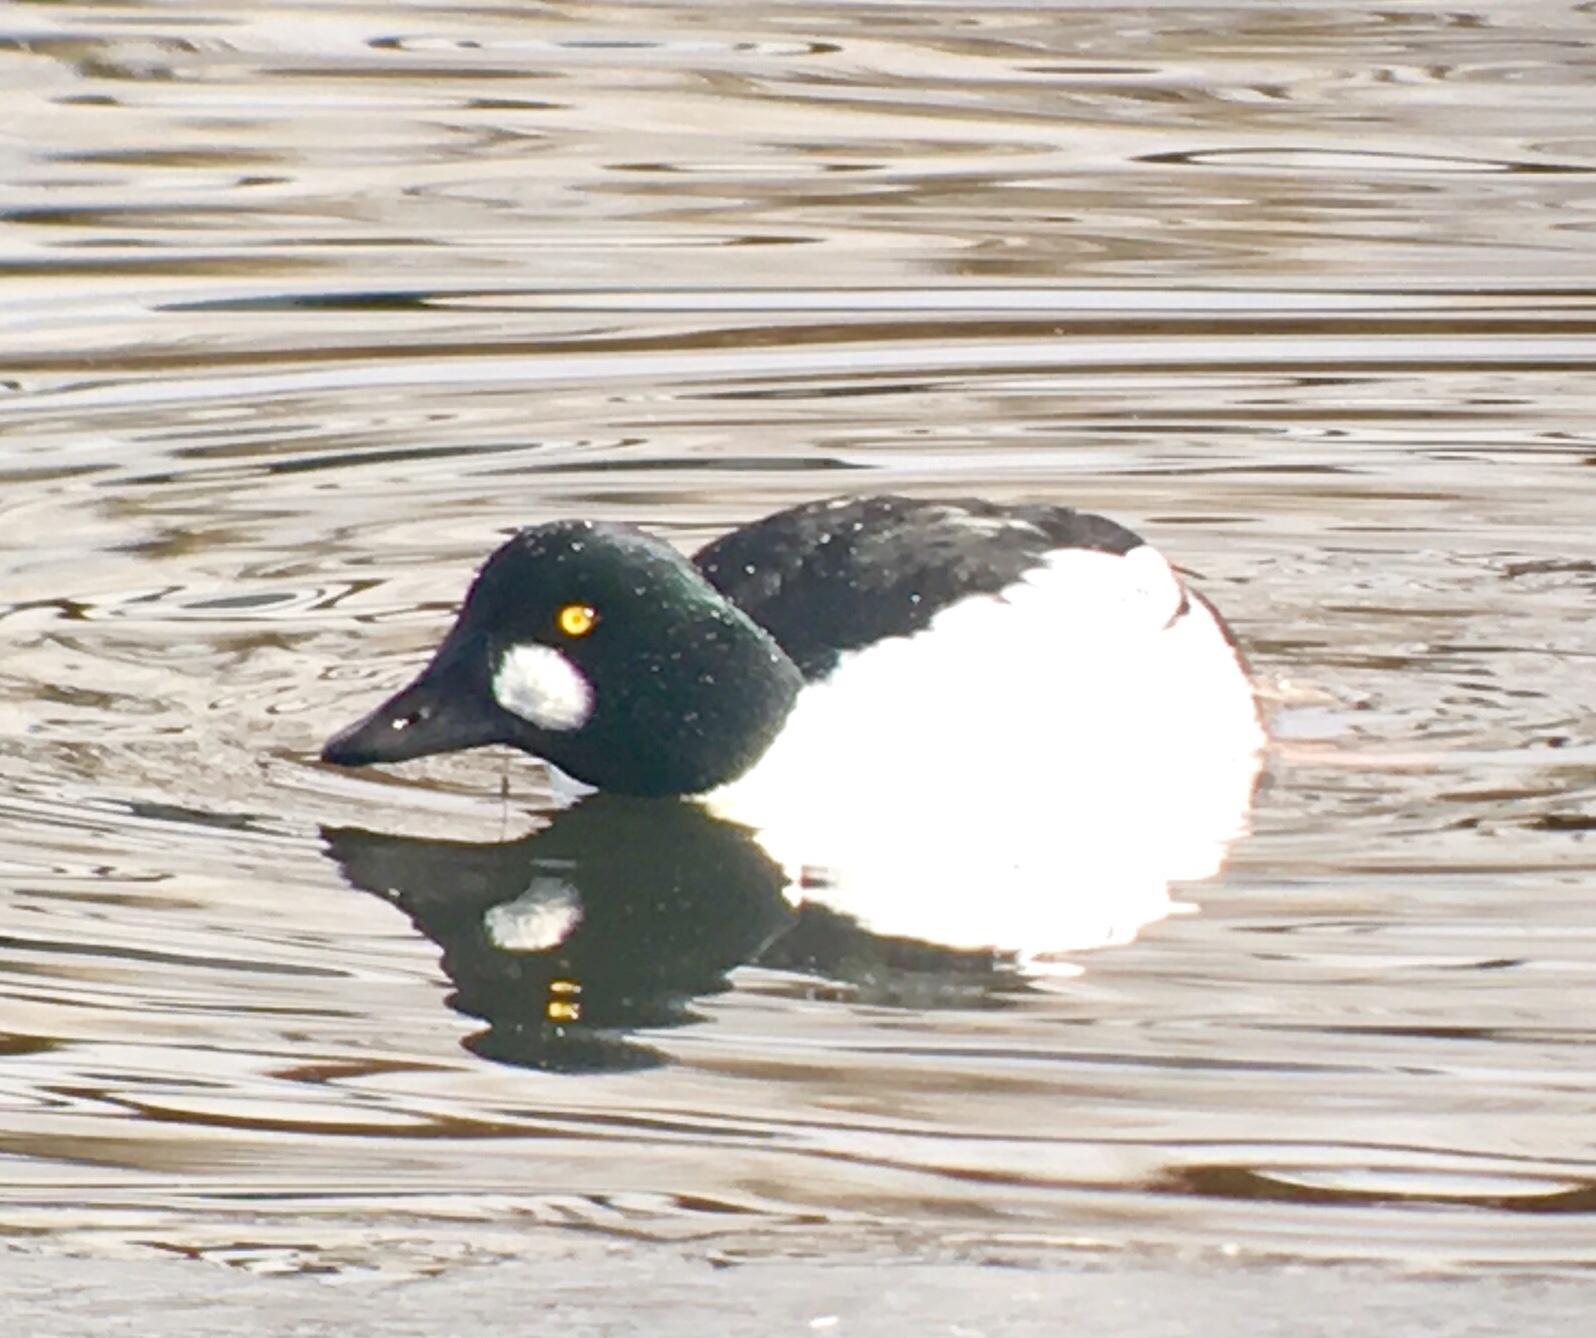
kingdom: Animalia
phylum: Chordata
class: Aves
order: Anseriformes
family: Anatidae
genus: Bucephala
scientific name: Bucephala clangula
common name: Common goldeneye
